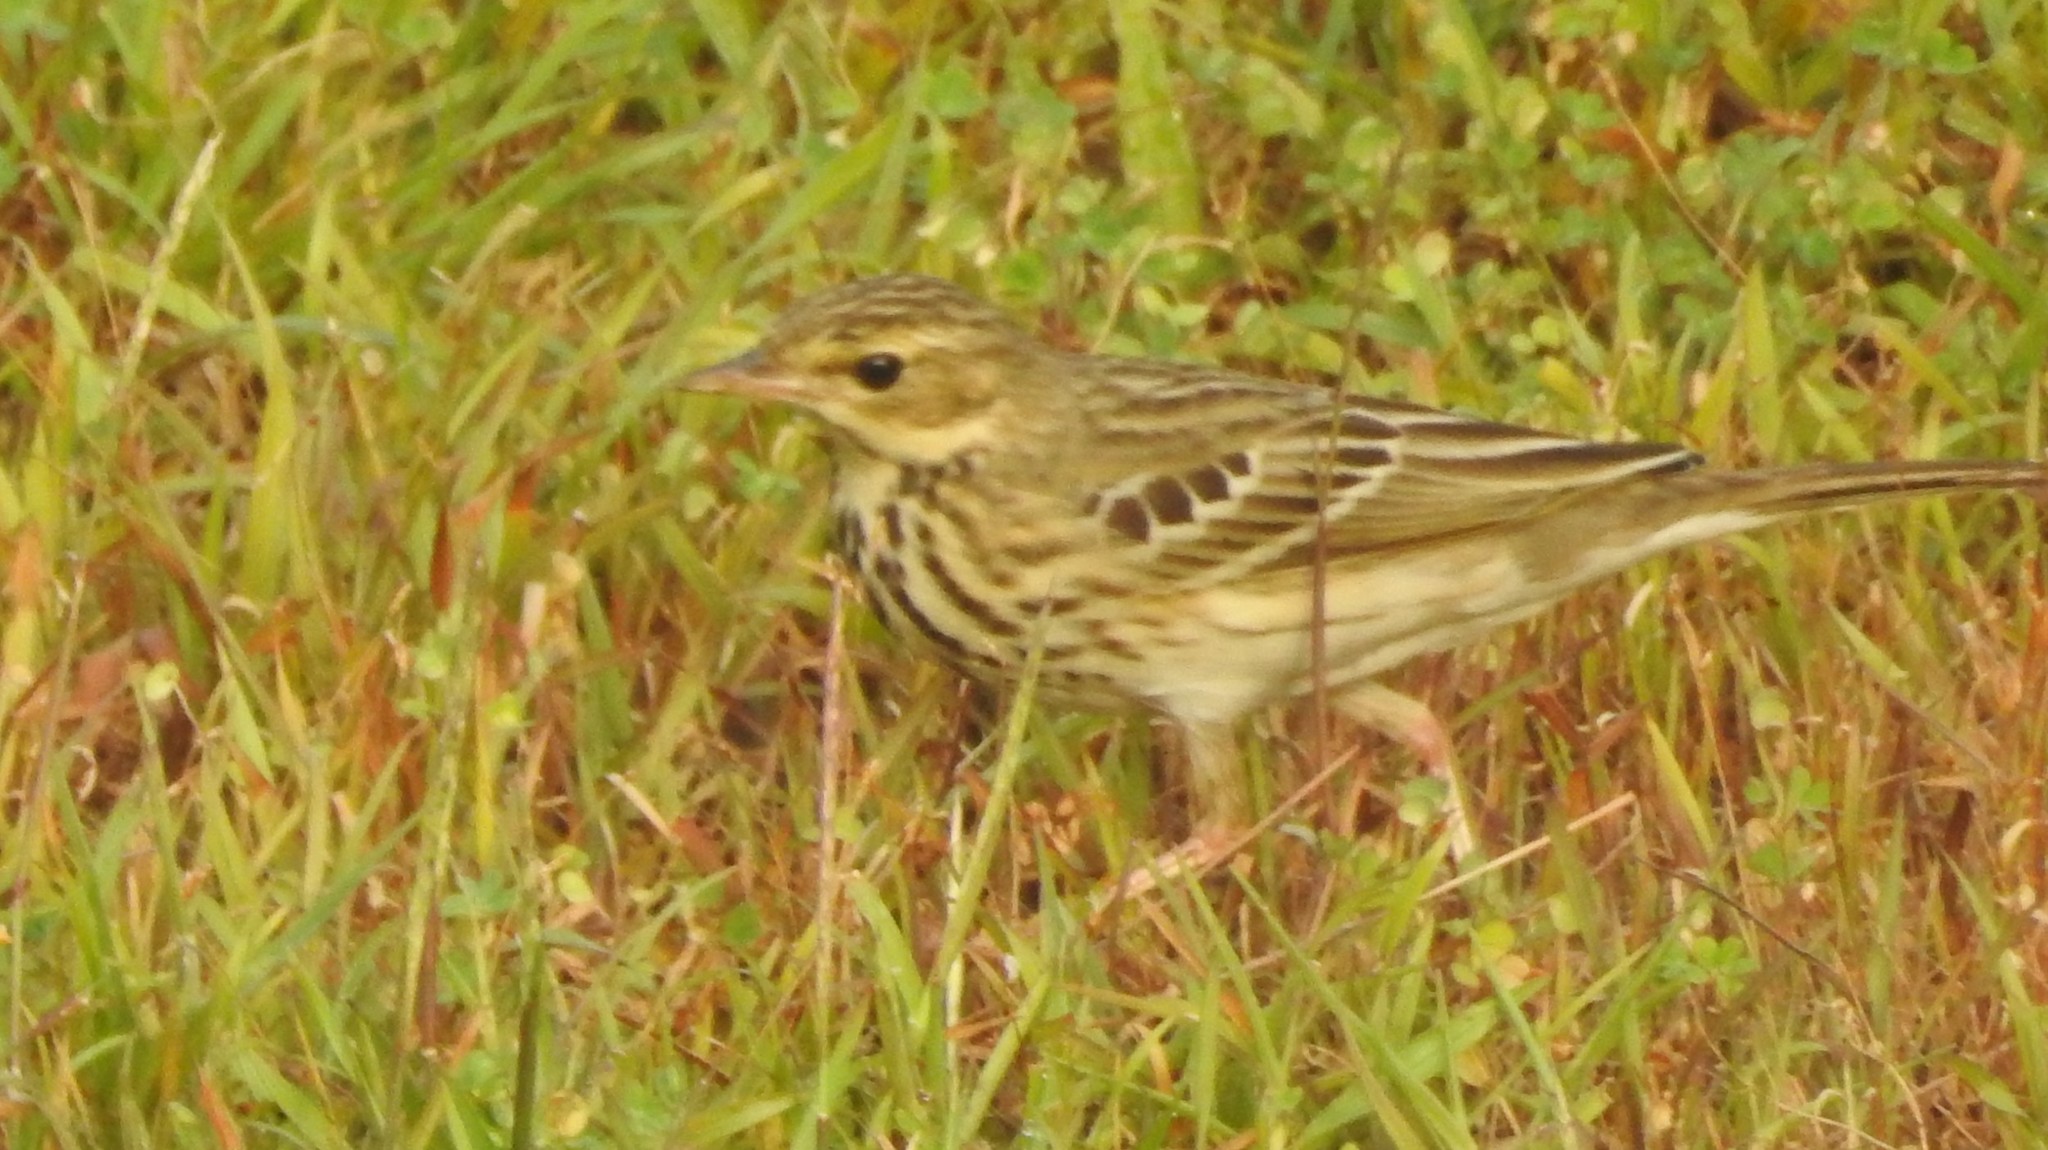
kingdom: Animalia
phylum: Chordata
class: Aves
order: Passeriformes
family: Motacillidae
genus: Anthus
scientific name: Anthus trivialis
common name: Tree pipit
